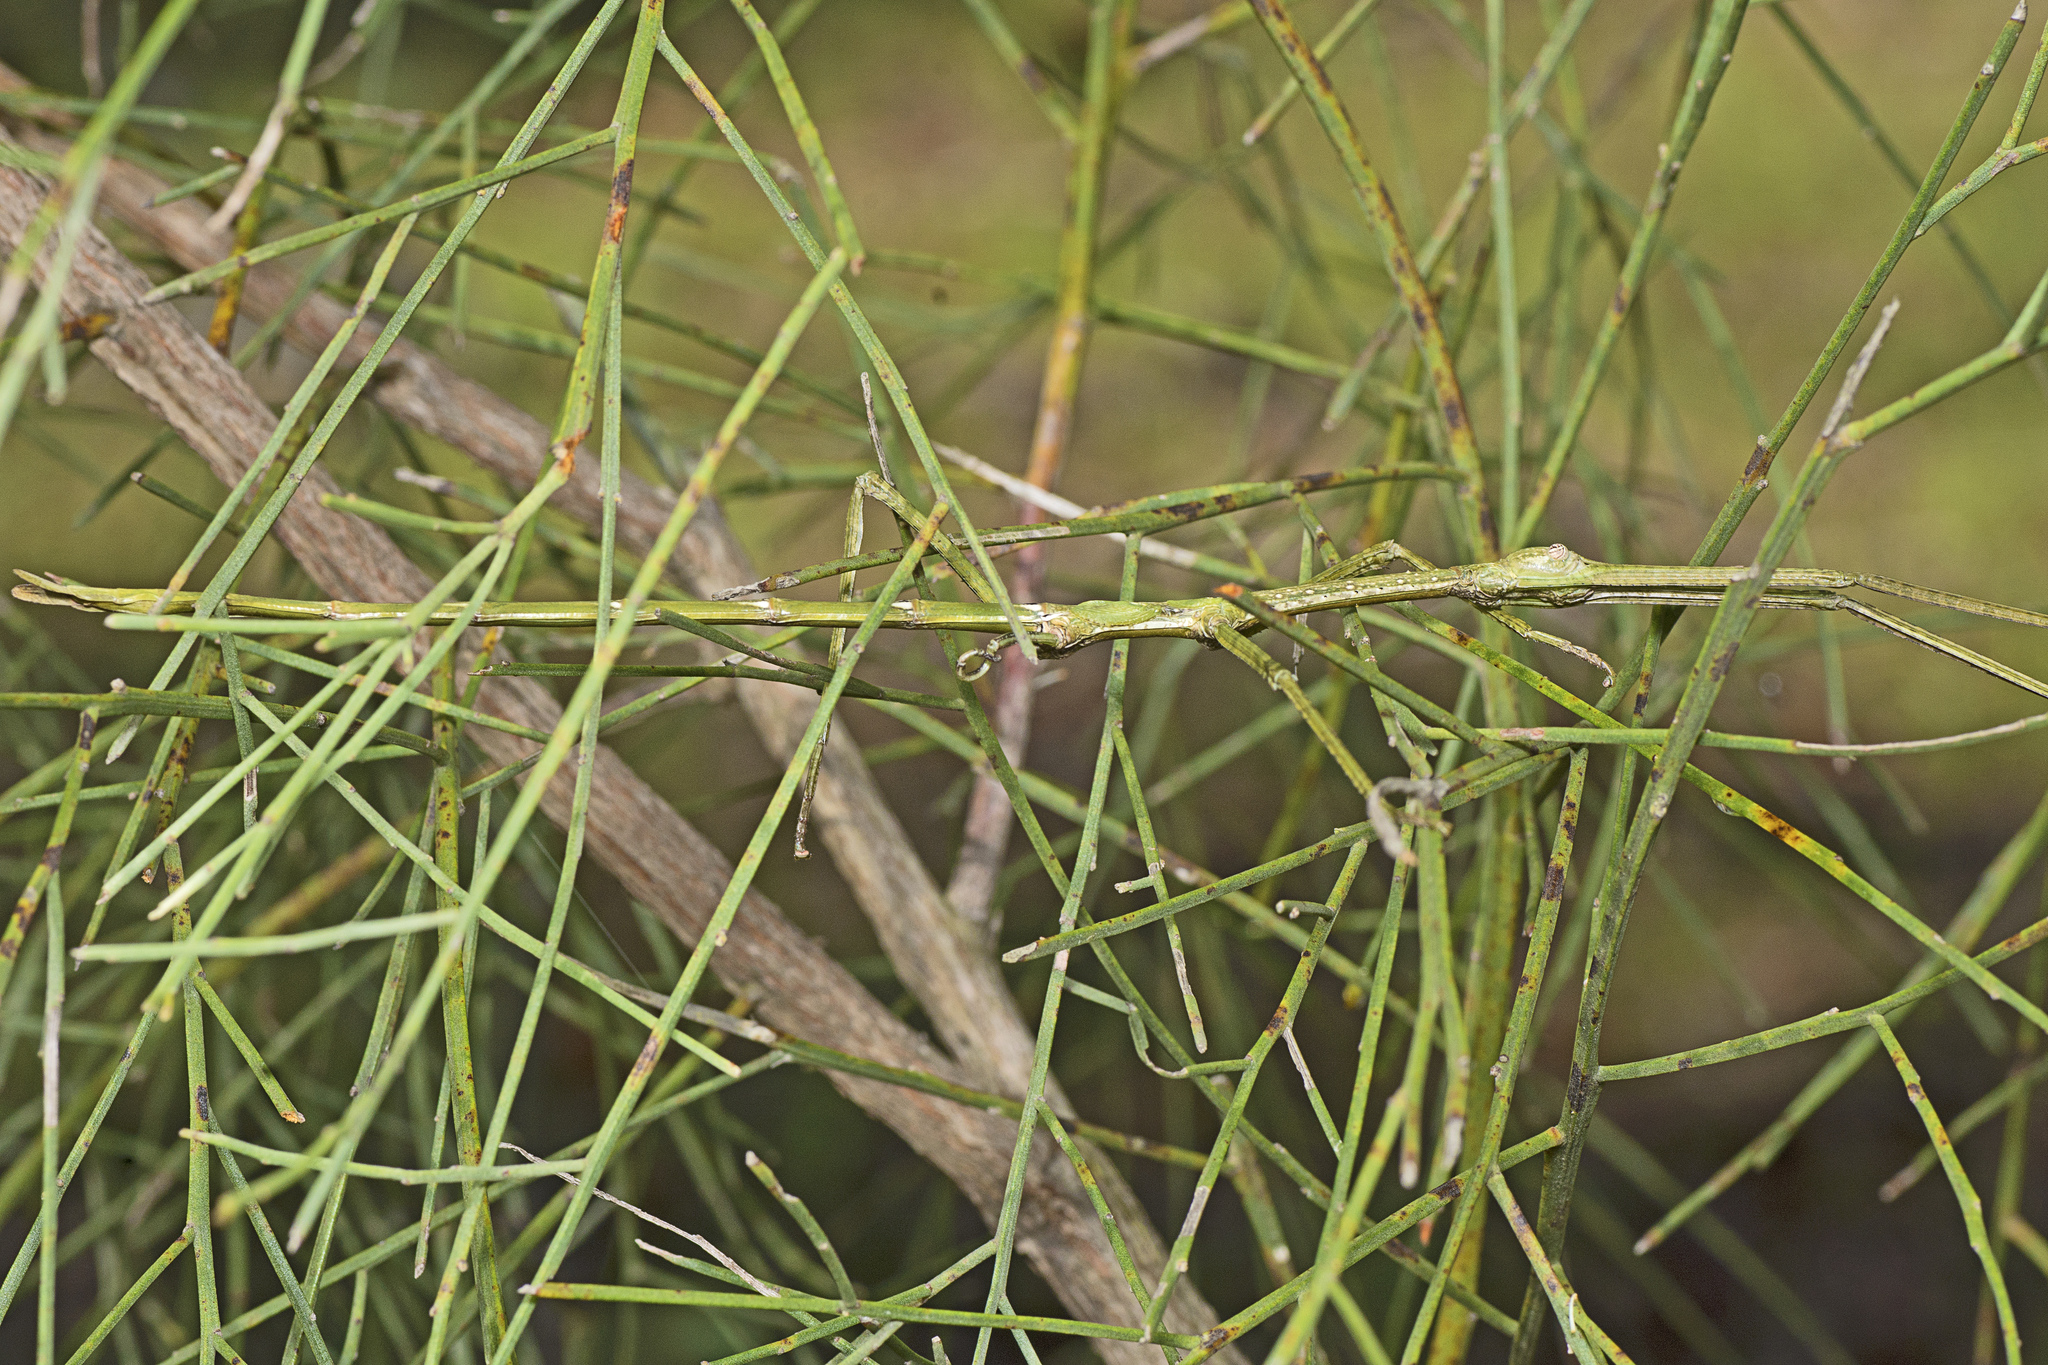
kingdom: Animalia
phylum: Arthropoda
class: Insecta
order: Phasmida
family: Phasmatidae
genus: Anchiale
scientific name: Anchiale austrotessulata
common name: Tessellated stick-insect
